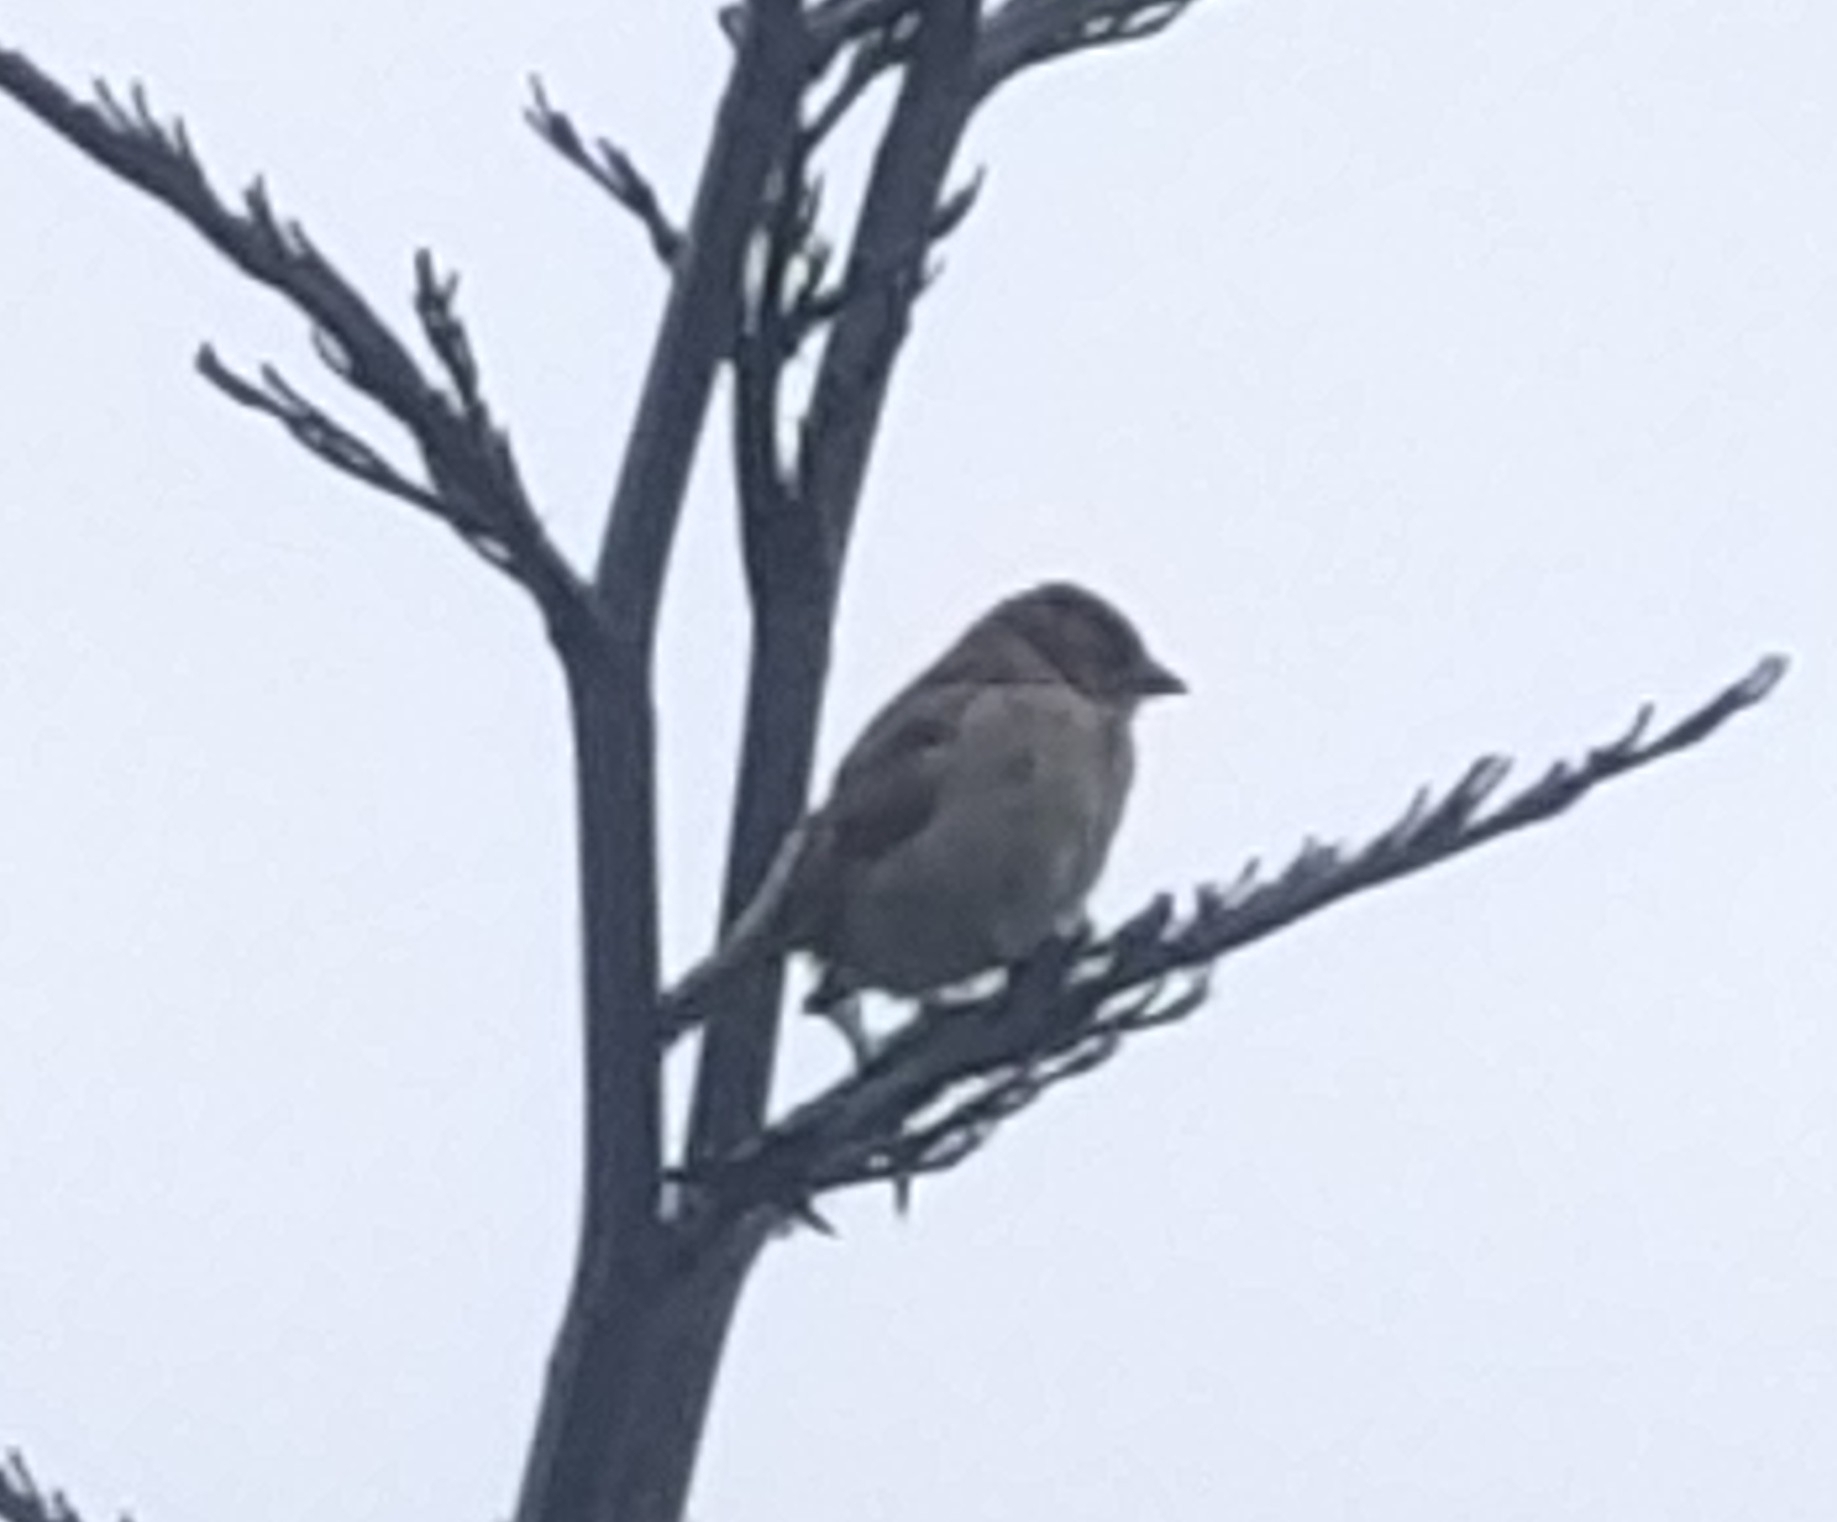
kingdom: Animalia
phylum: Chordata
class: Aves
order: Passeriformes
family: Passeridae
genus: Passer
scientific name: Passer domesticus
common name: House sparrow
